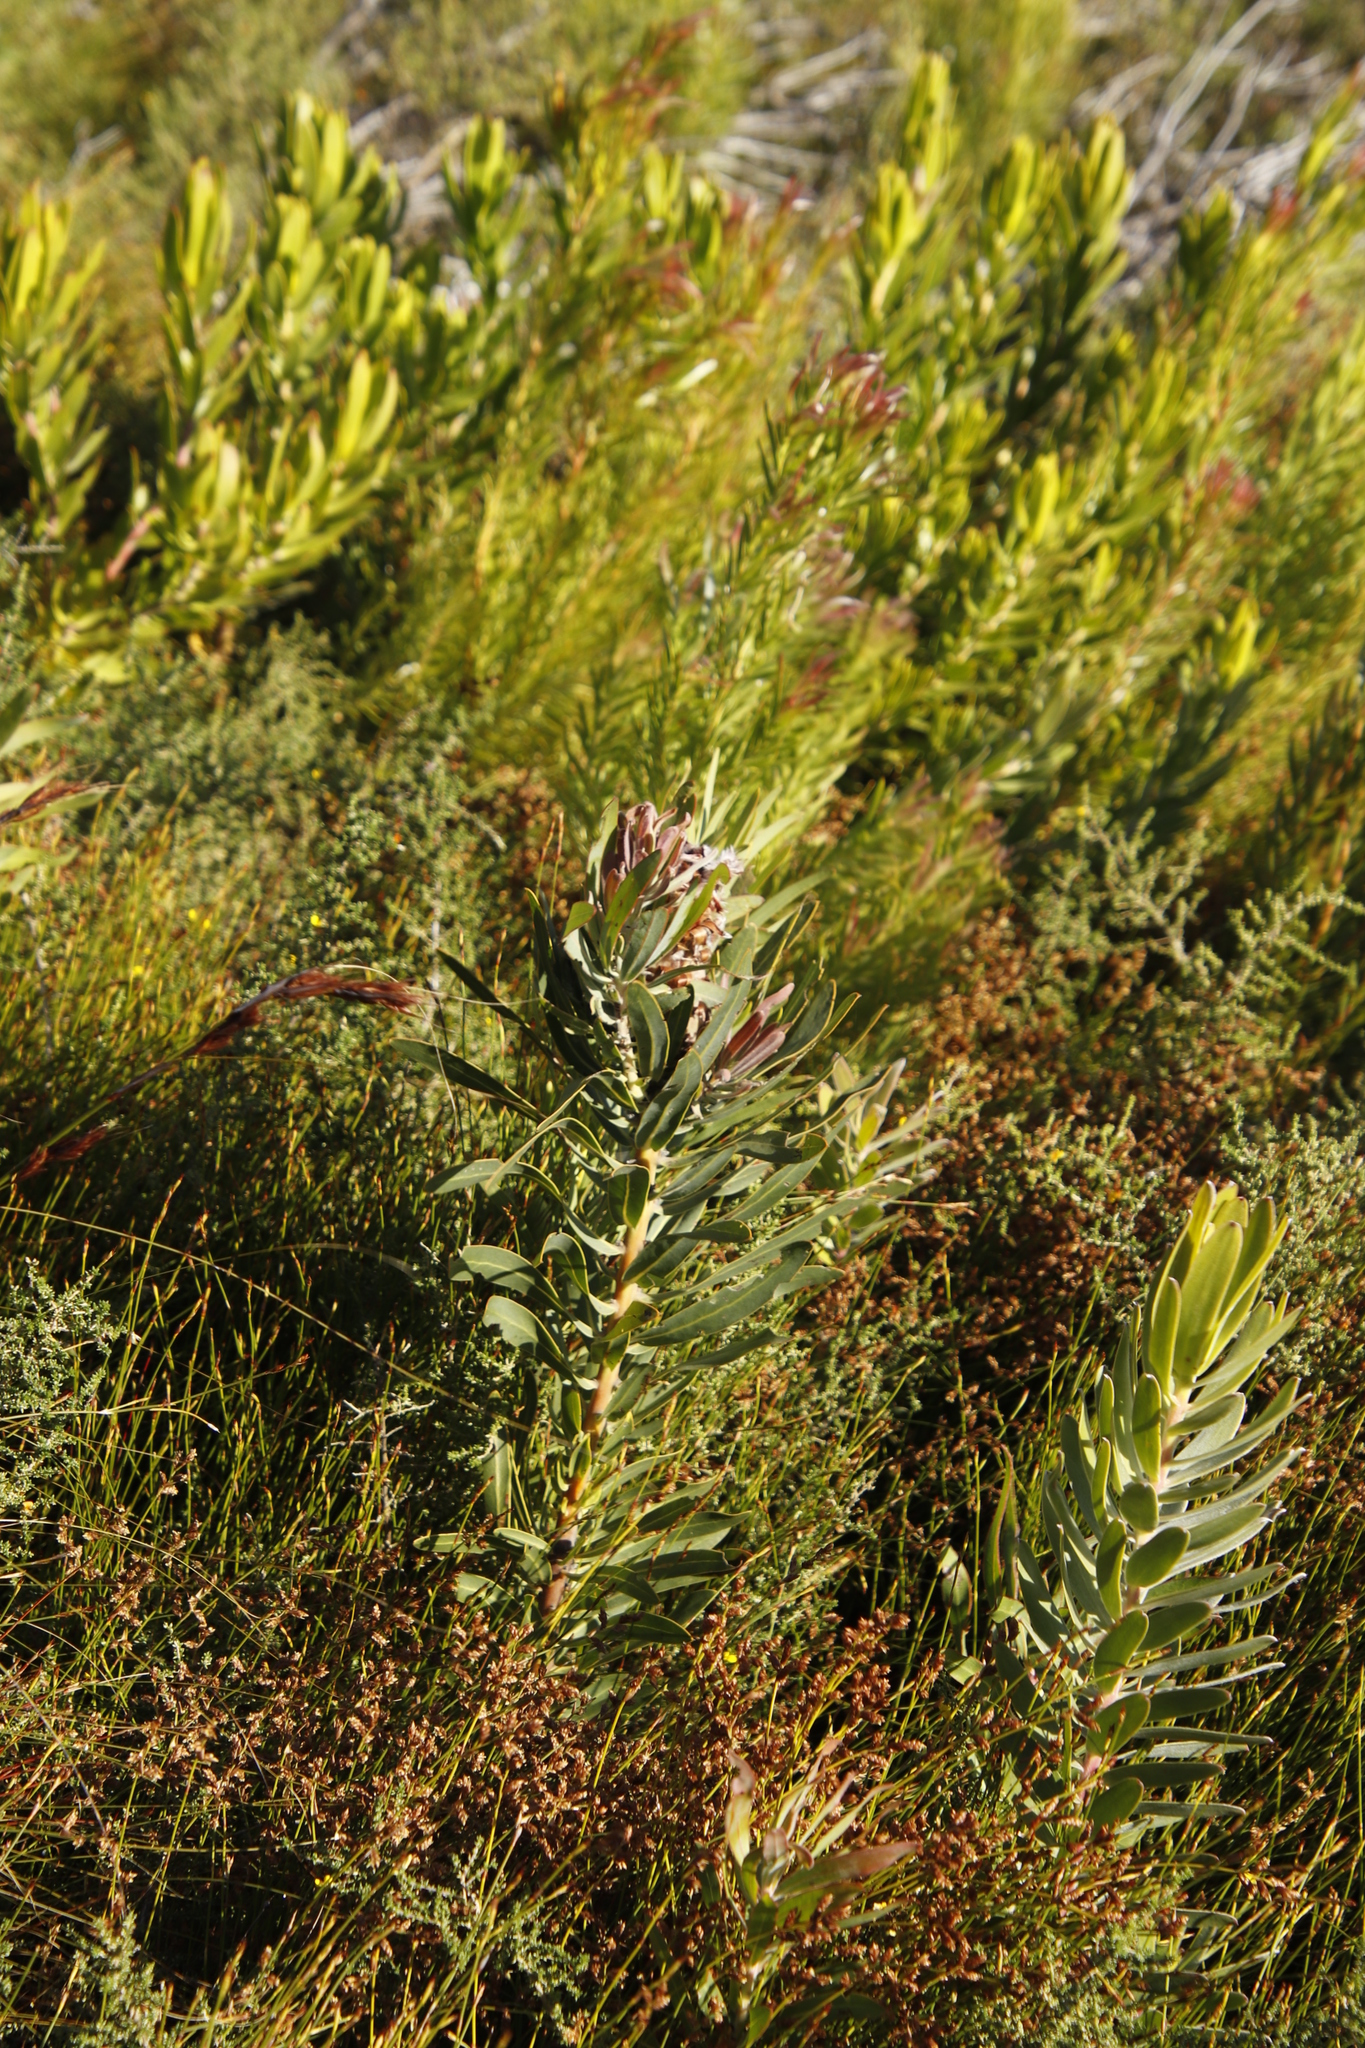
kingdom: Plantae
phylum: Tracheophyta
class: Magnoliopsida
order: Proteales
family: Proteaceae
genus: Protea
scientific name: Protea laurifolia
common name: Grey-leaf sugarbsh
